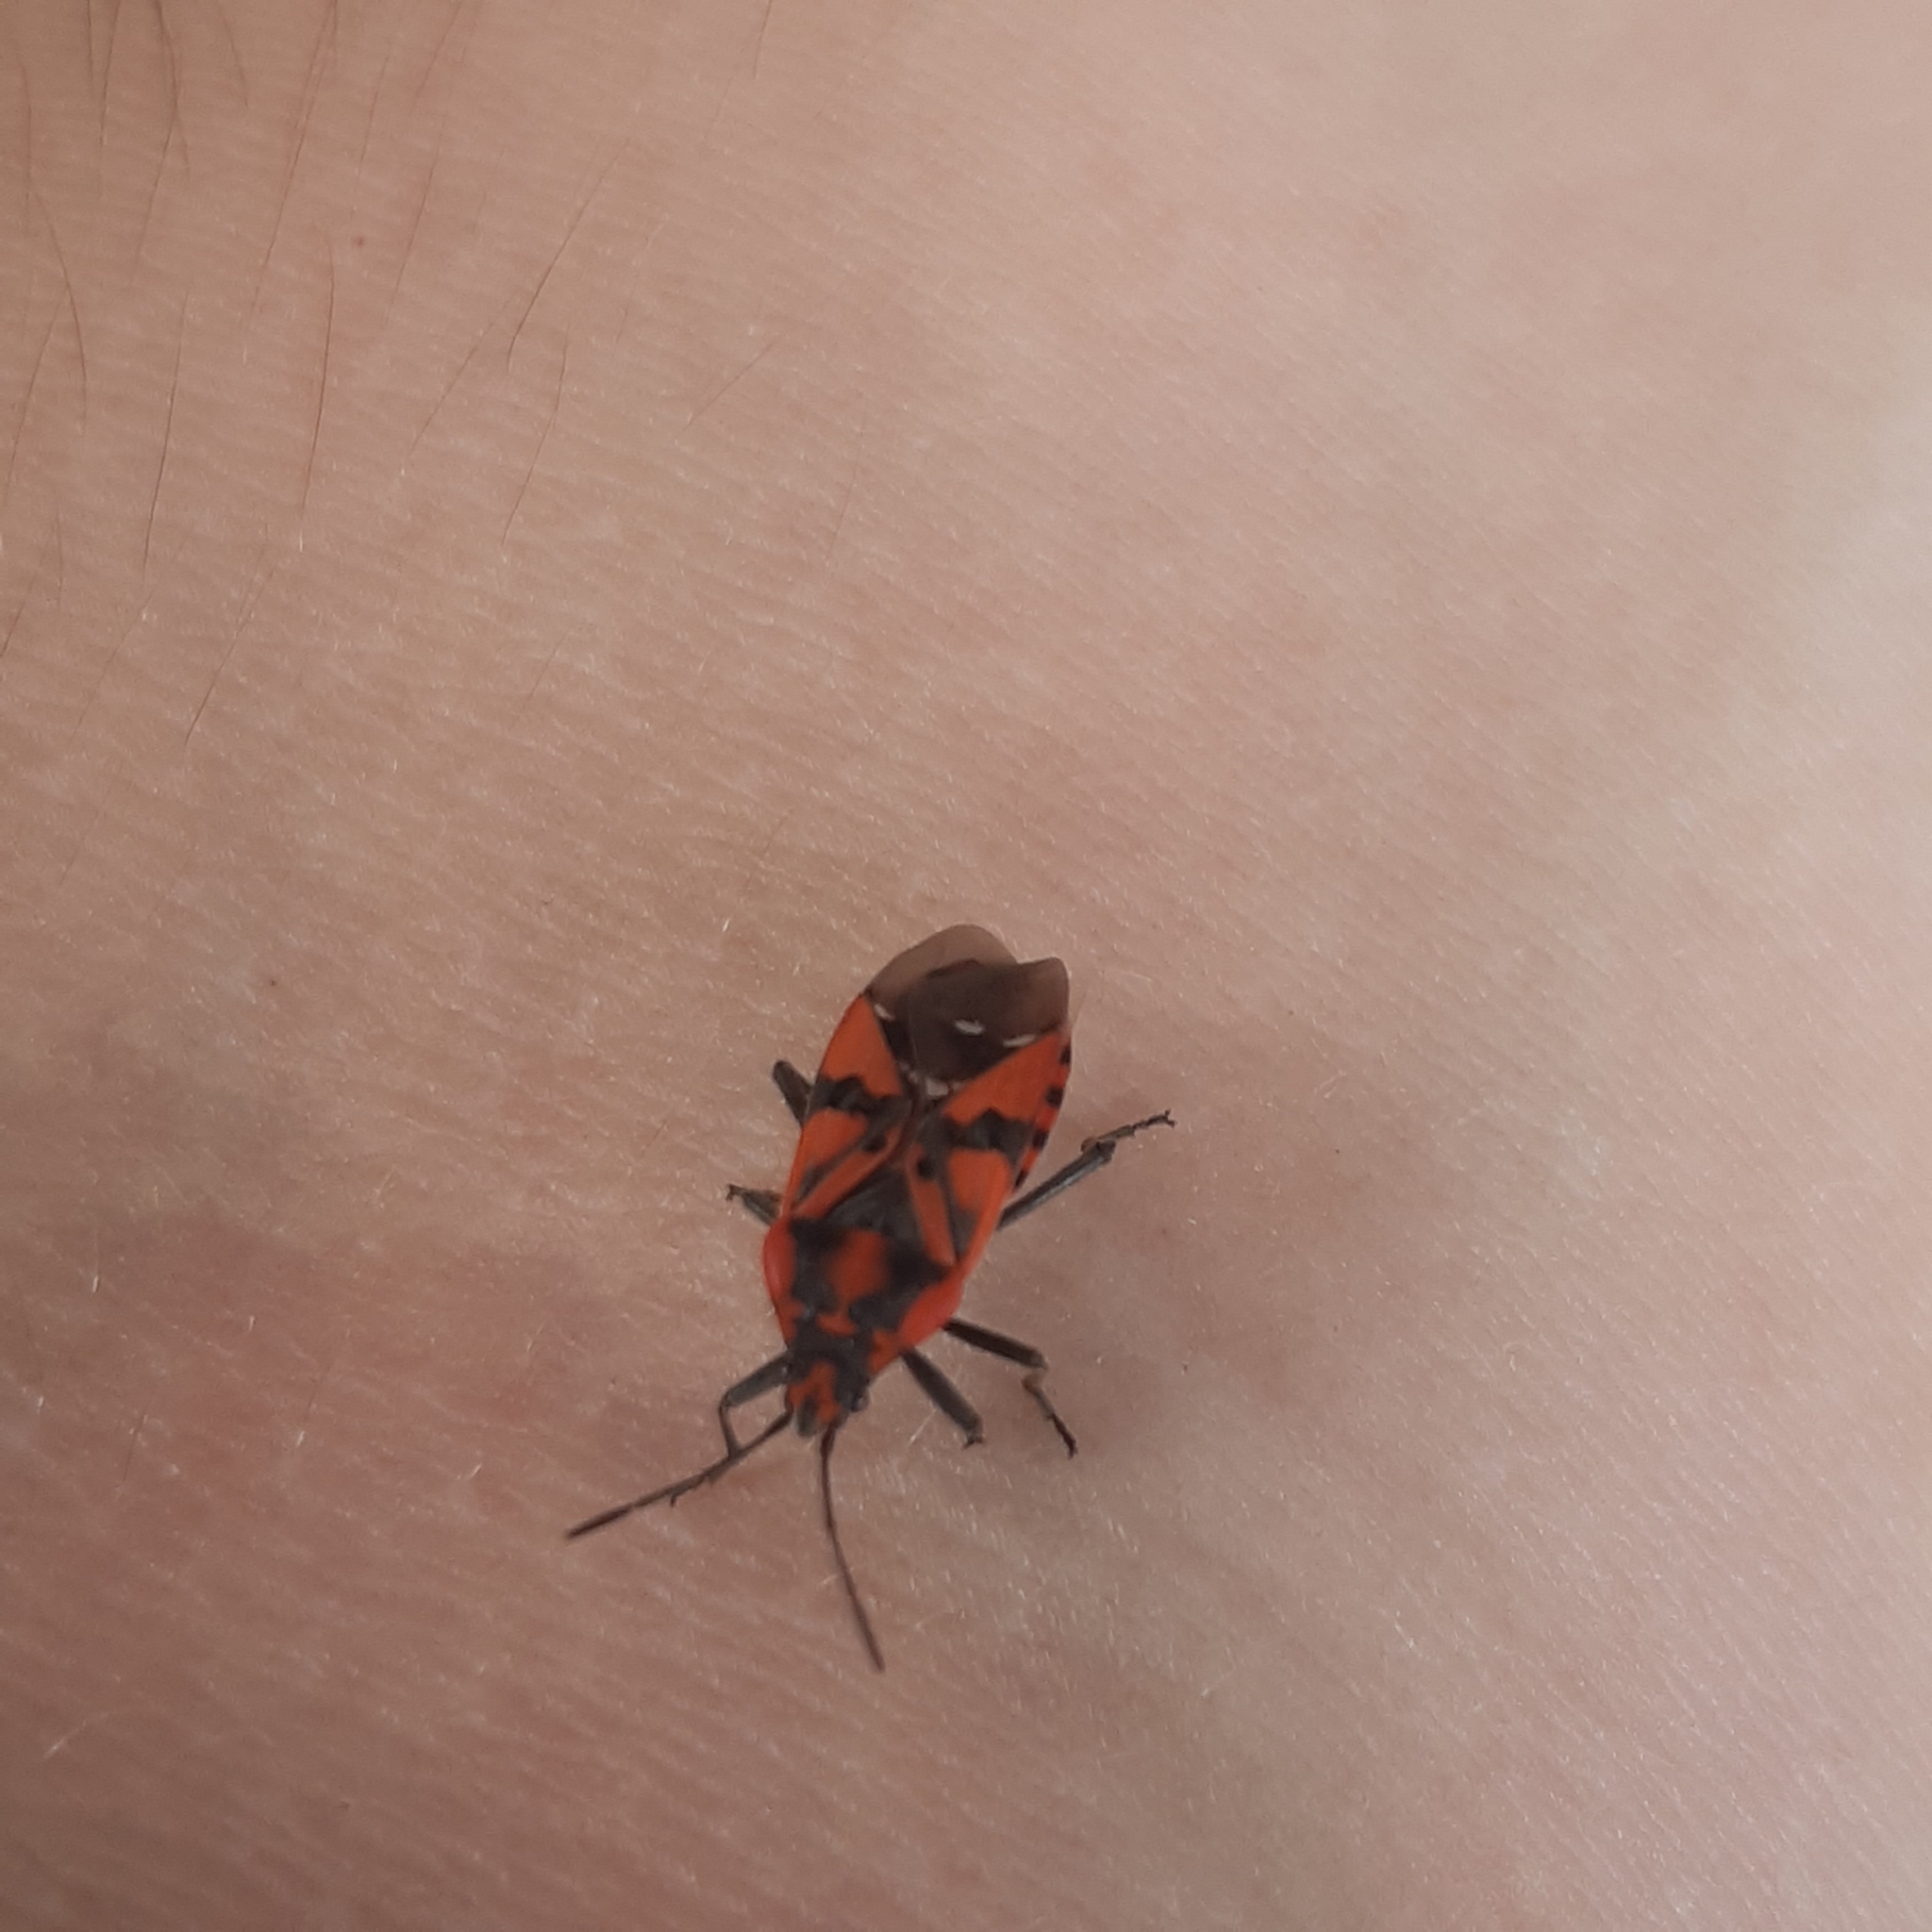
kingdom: Animalia
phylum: Arthropoda
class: Insecta
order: Hemiptera
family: Lygaeidae
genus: Spilostethus
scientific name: Spilostethus pandurus
